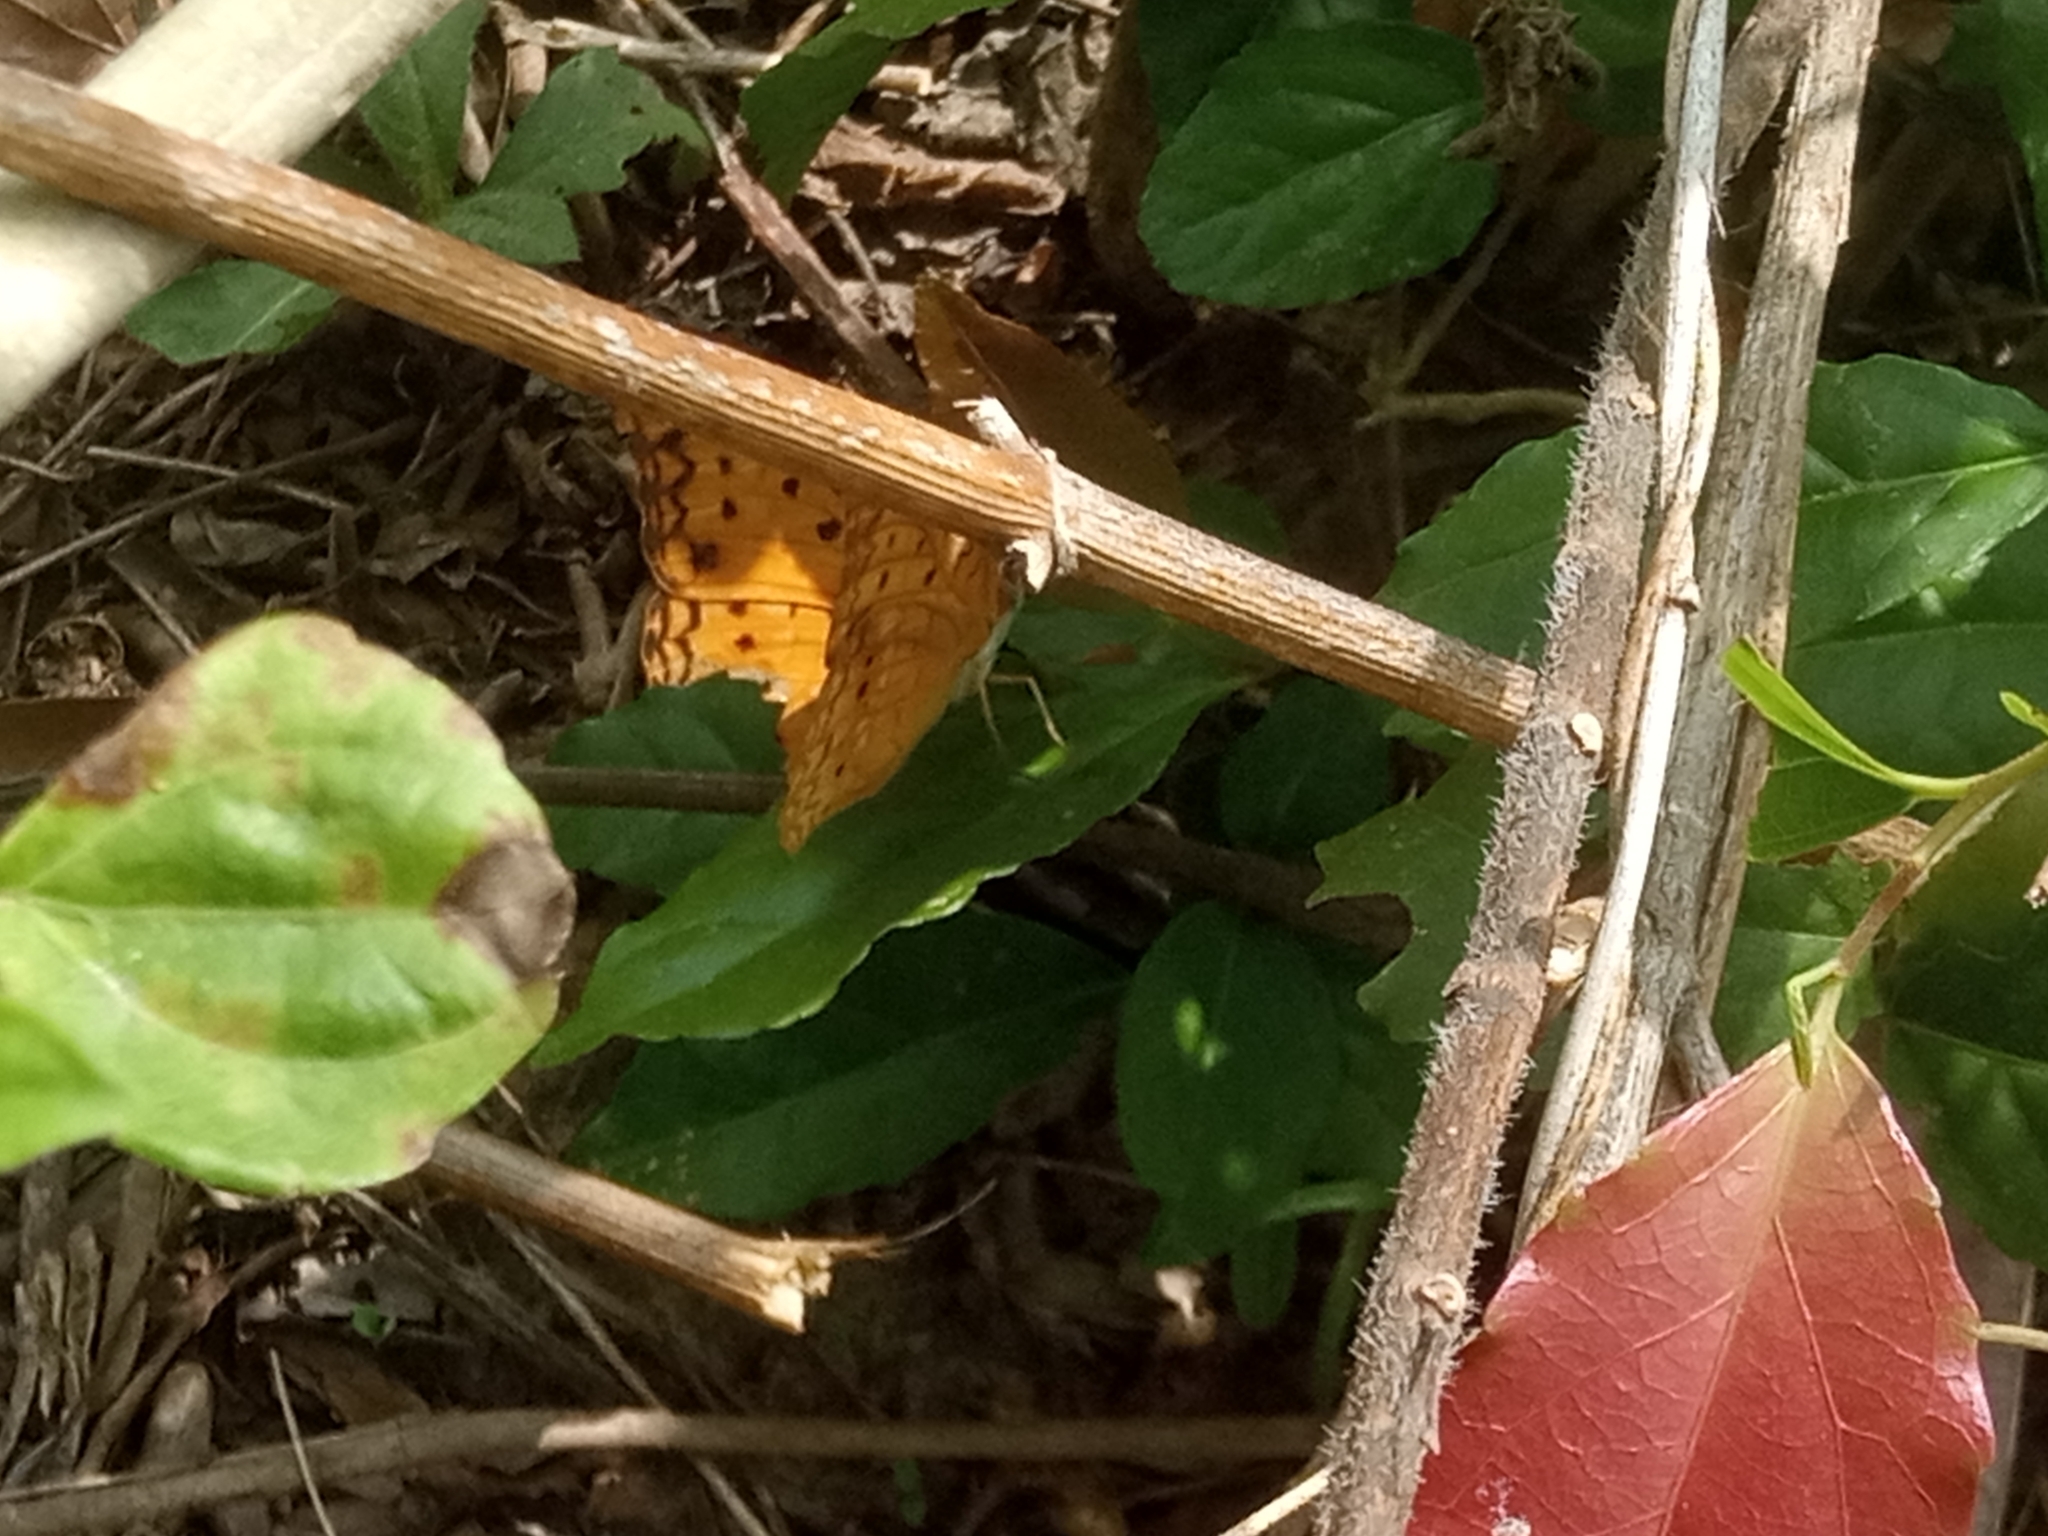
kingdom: Animalia
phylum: Arthropoda
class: Insecta
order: Lepidoptera
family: Nymphalidae
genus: Phalanta
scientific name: Phalanta phalantha
